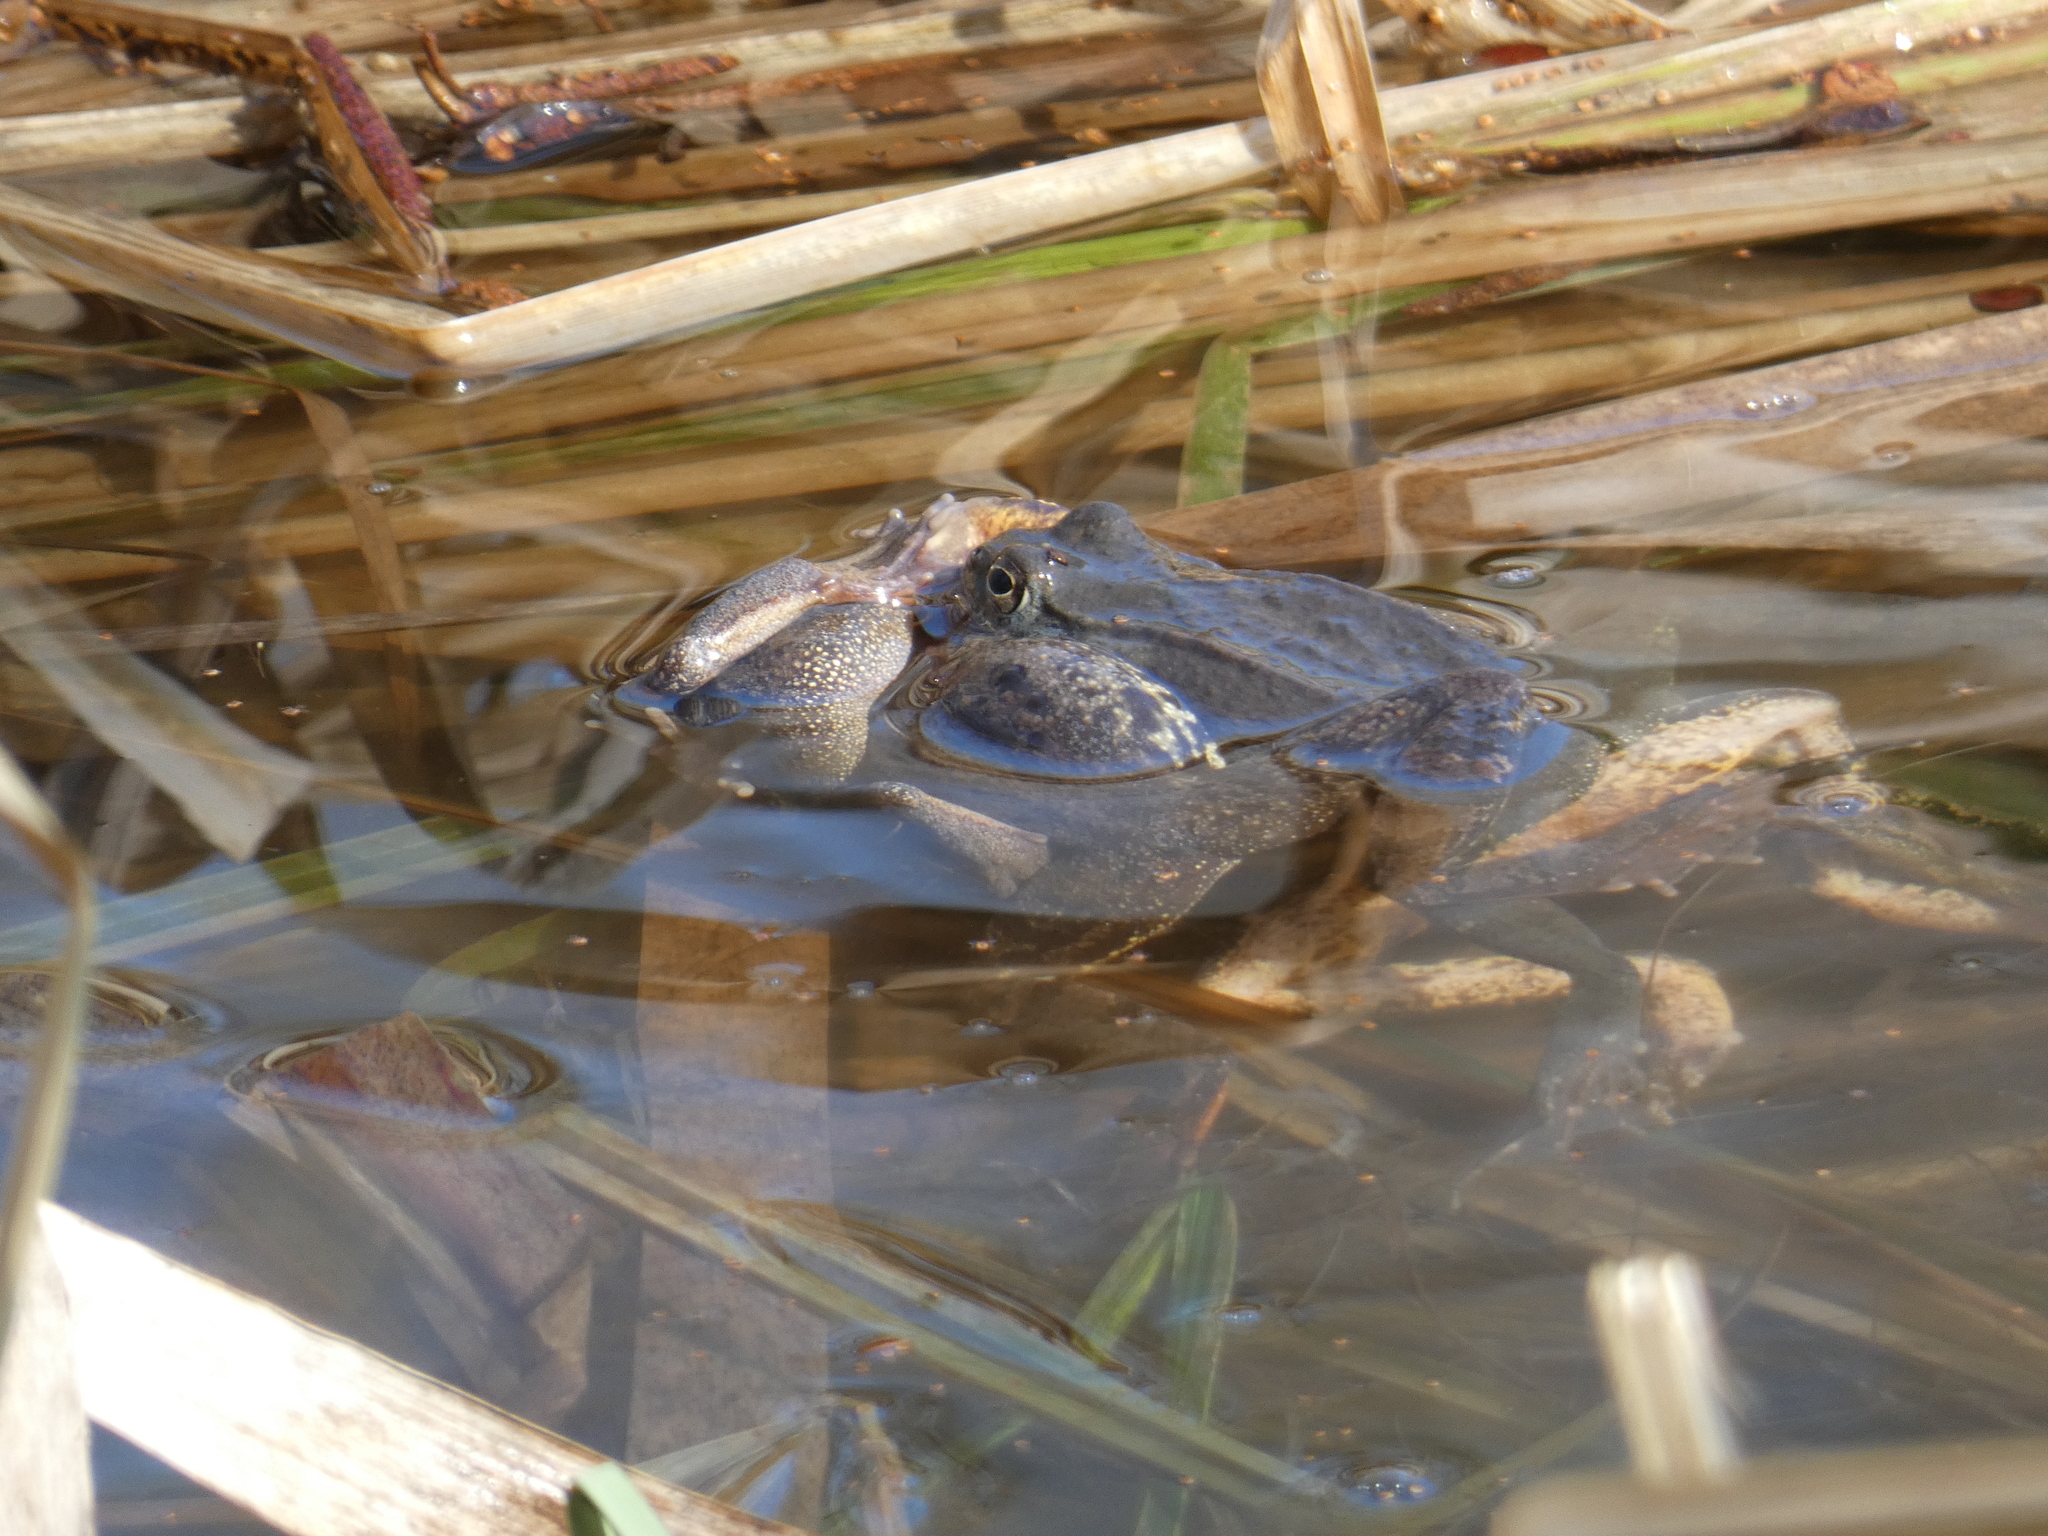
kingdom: Animalia
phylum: Chordata
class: Amphibia
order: Anura
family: Ranidae
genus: Rana
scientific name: Rana temporaria
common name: Common frog
